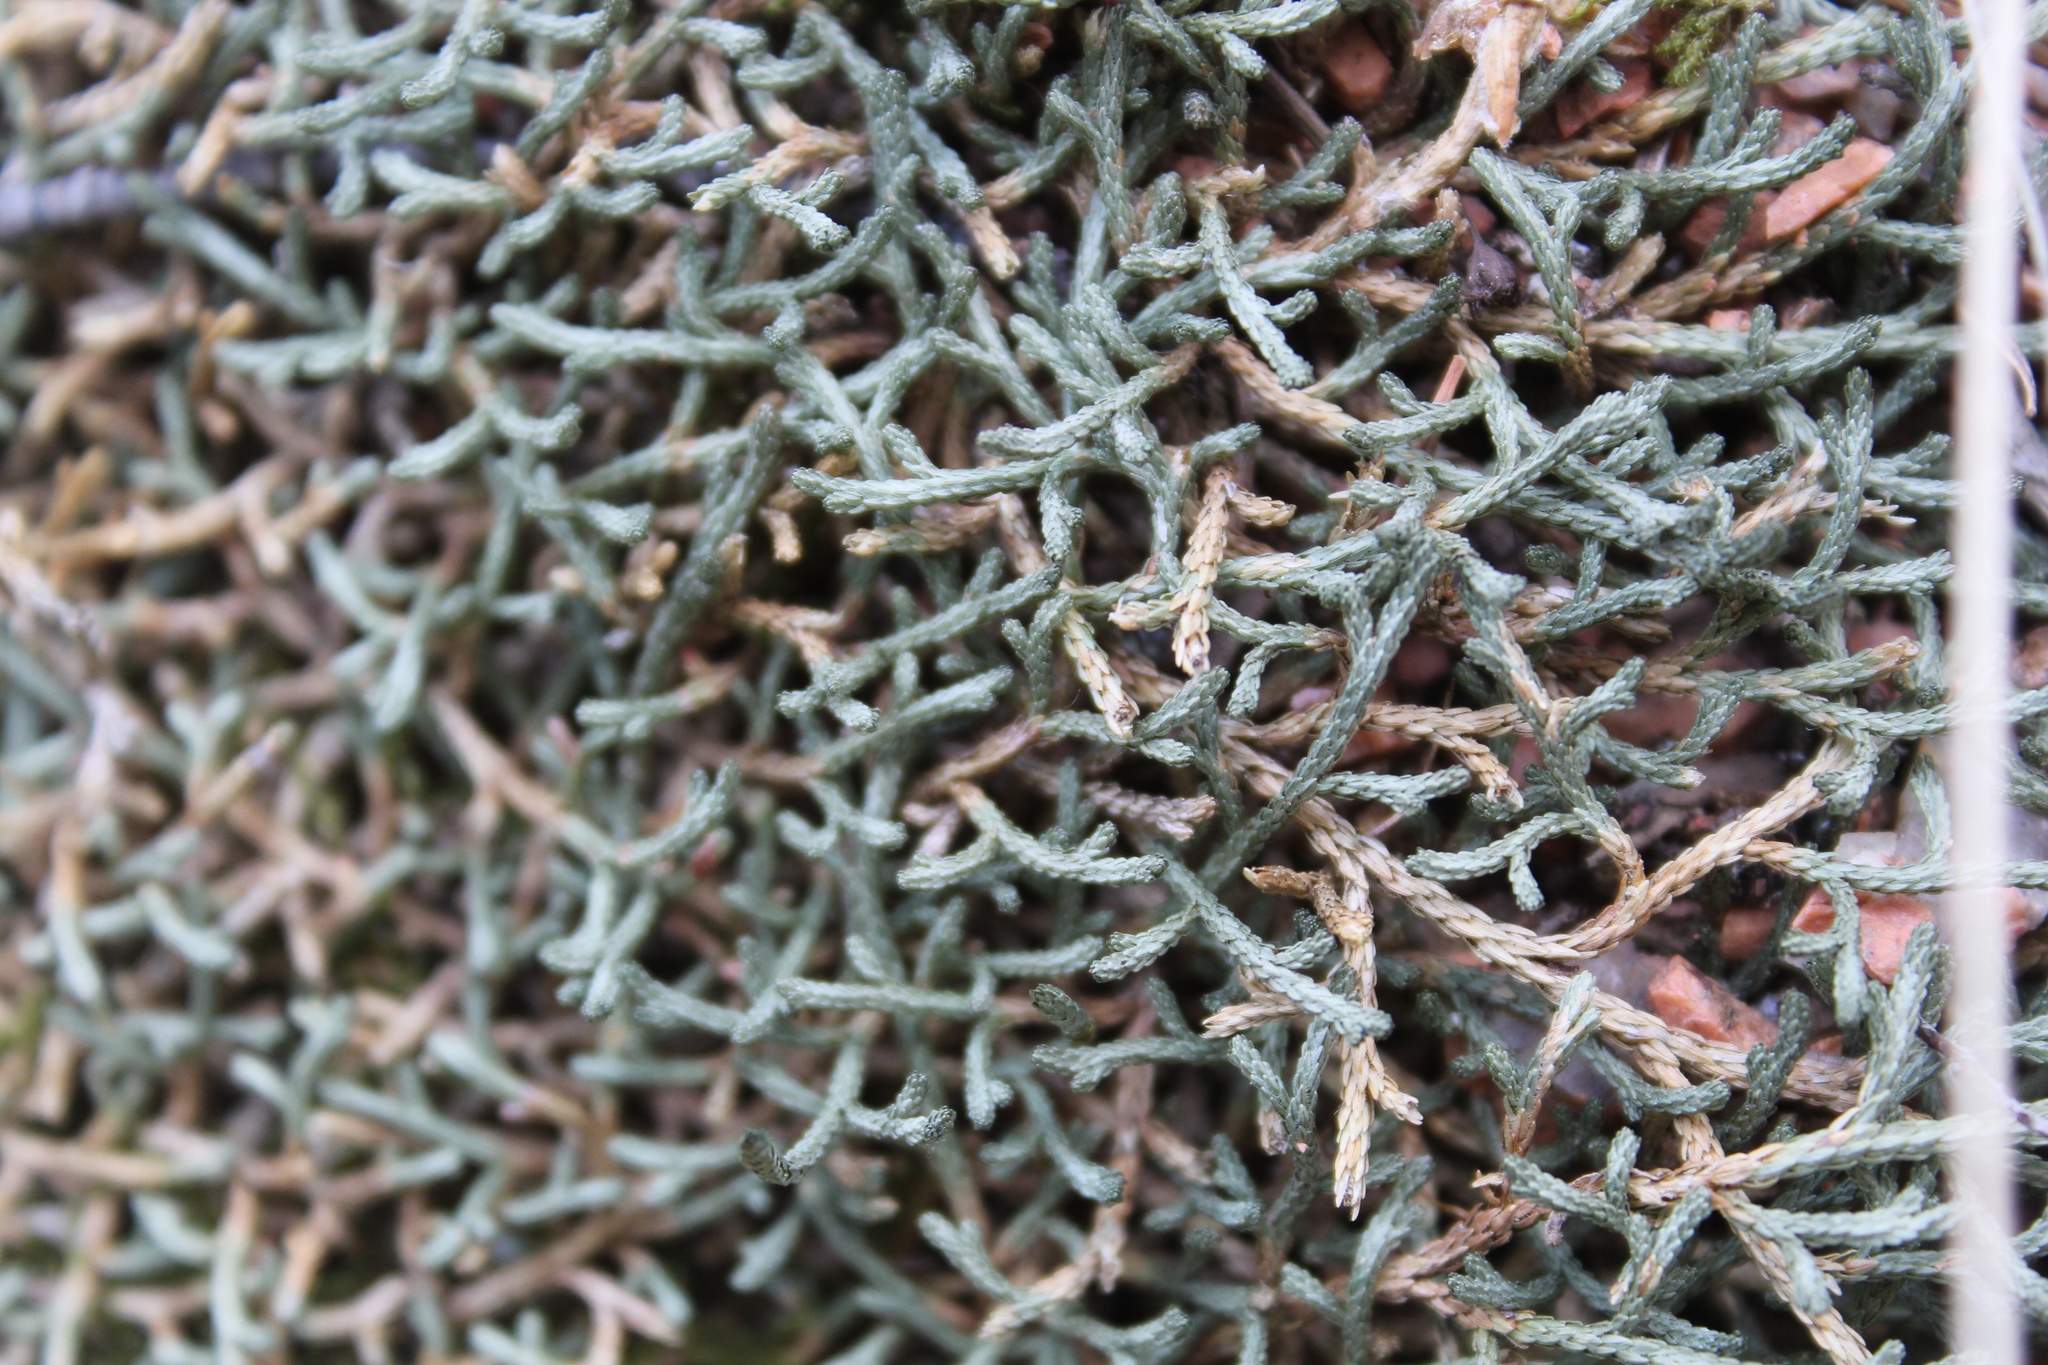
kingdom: Plantae
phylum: Tracheophyta
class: Lycopodiopsida
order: Selaginellales
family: Selaginellaceae
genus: Selaginella
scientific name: Selaginella mutica
